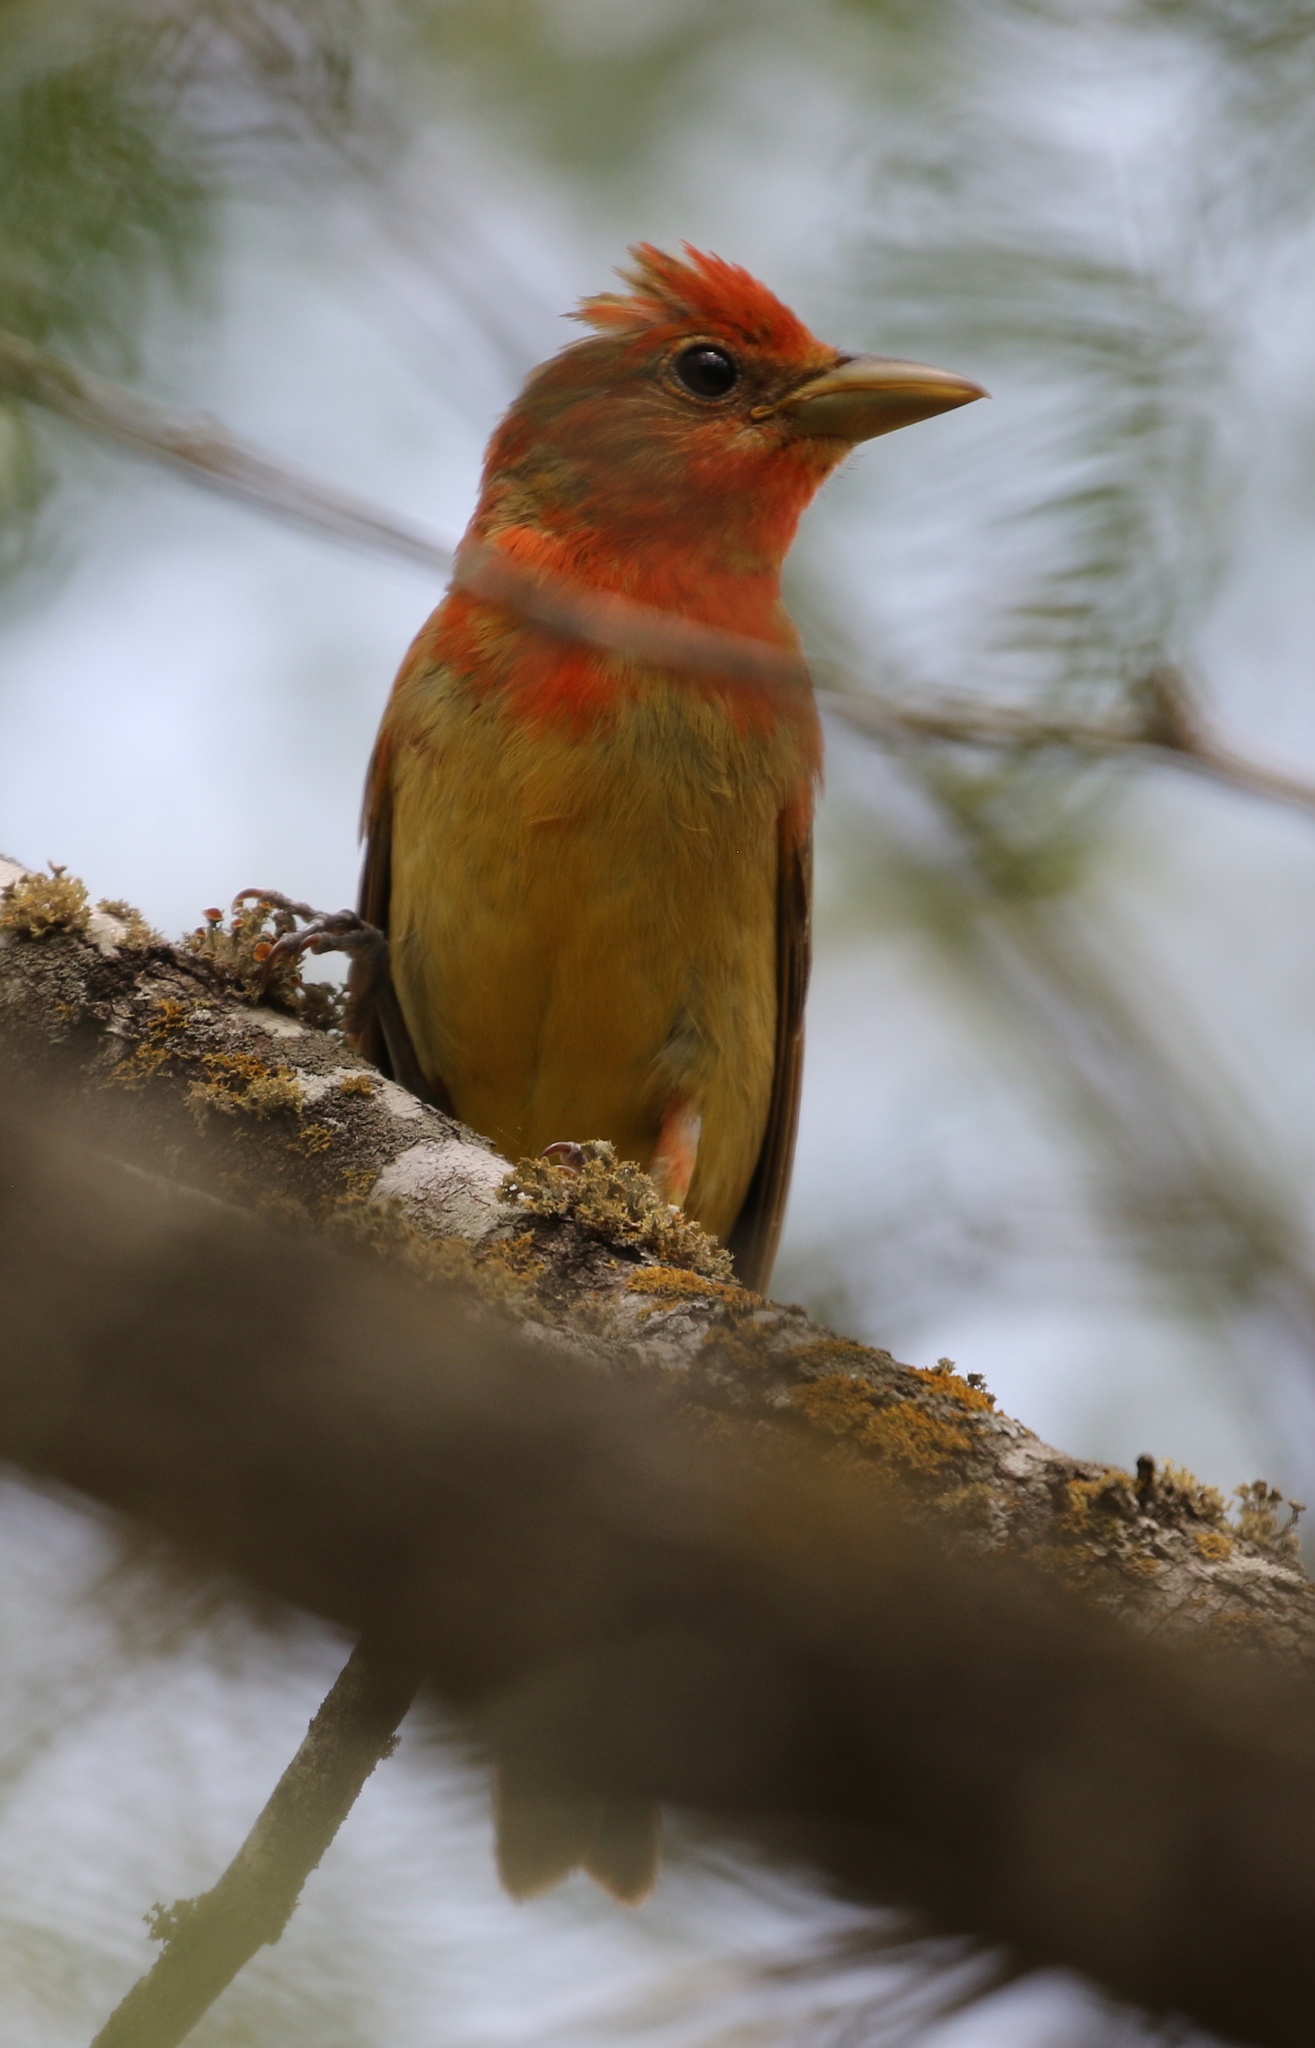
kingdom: Animalia
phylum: Chordata
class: Aves
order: Passeriformes
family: Cardinalidae
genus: Piranga
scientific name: Piranga rubra
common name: Summer tanager
